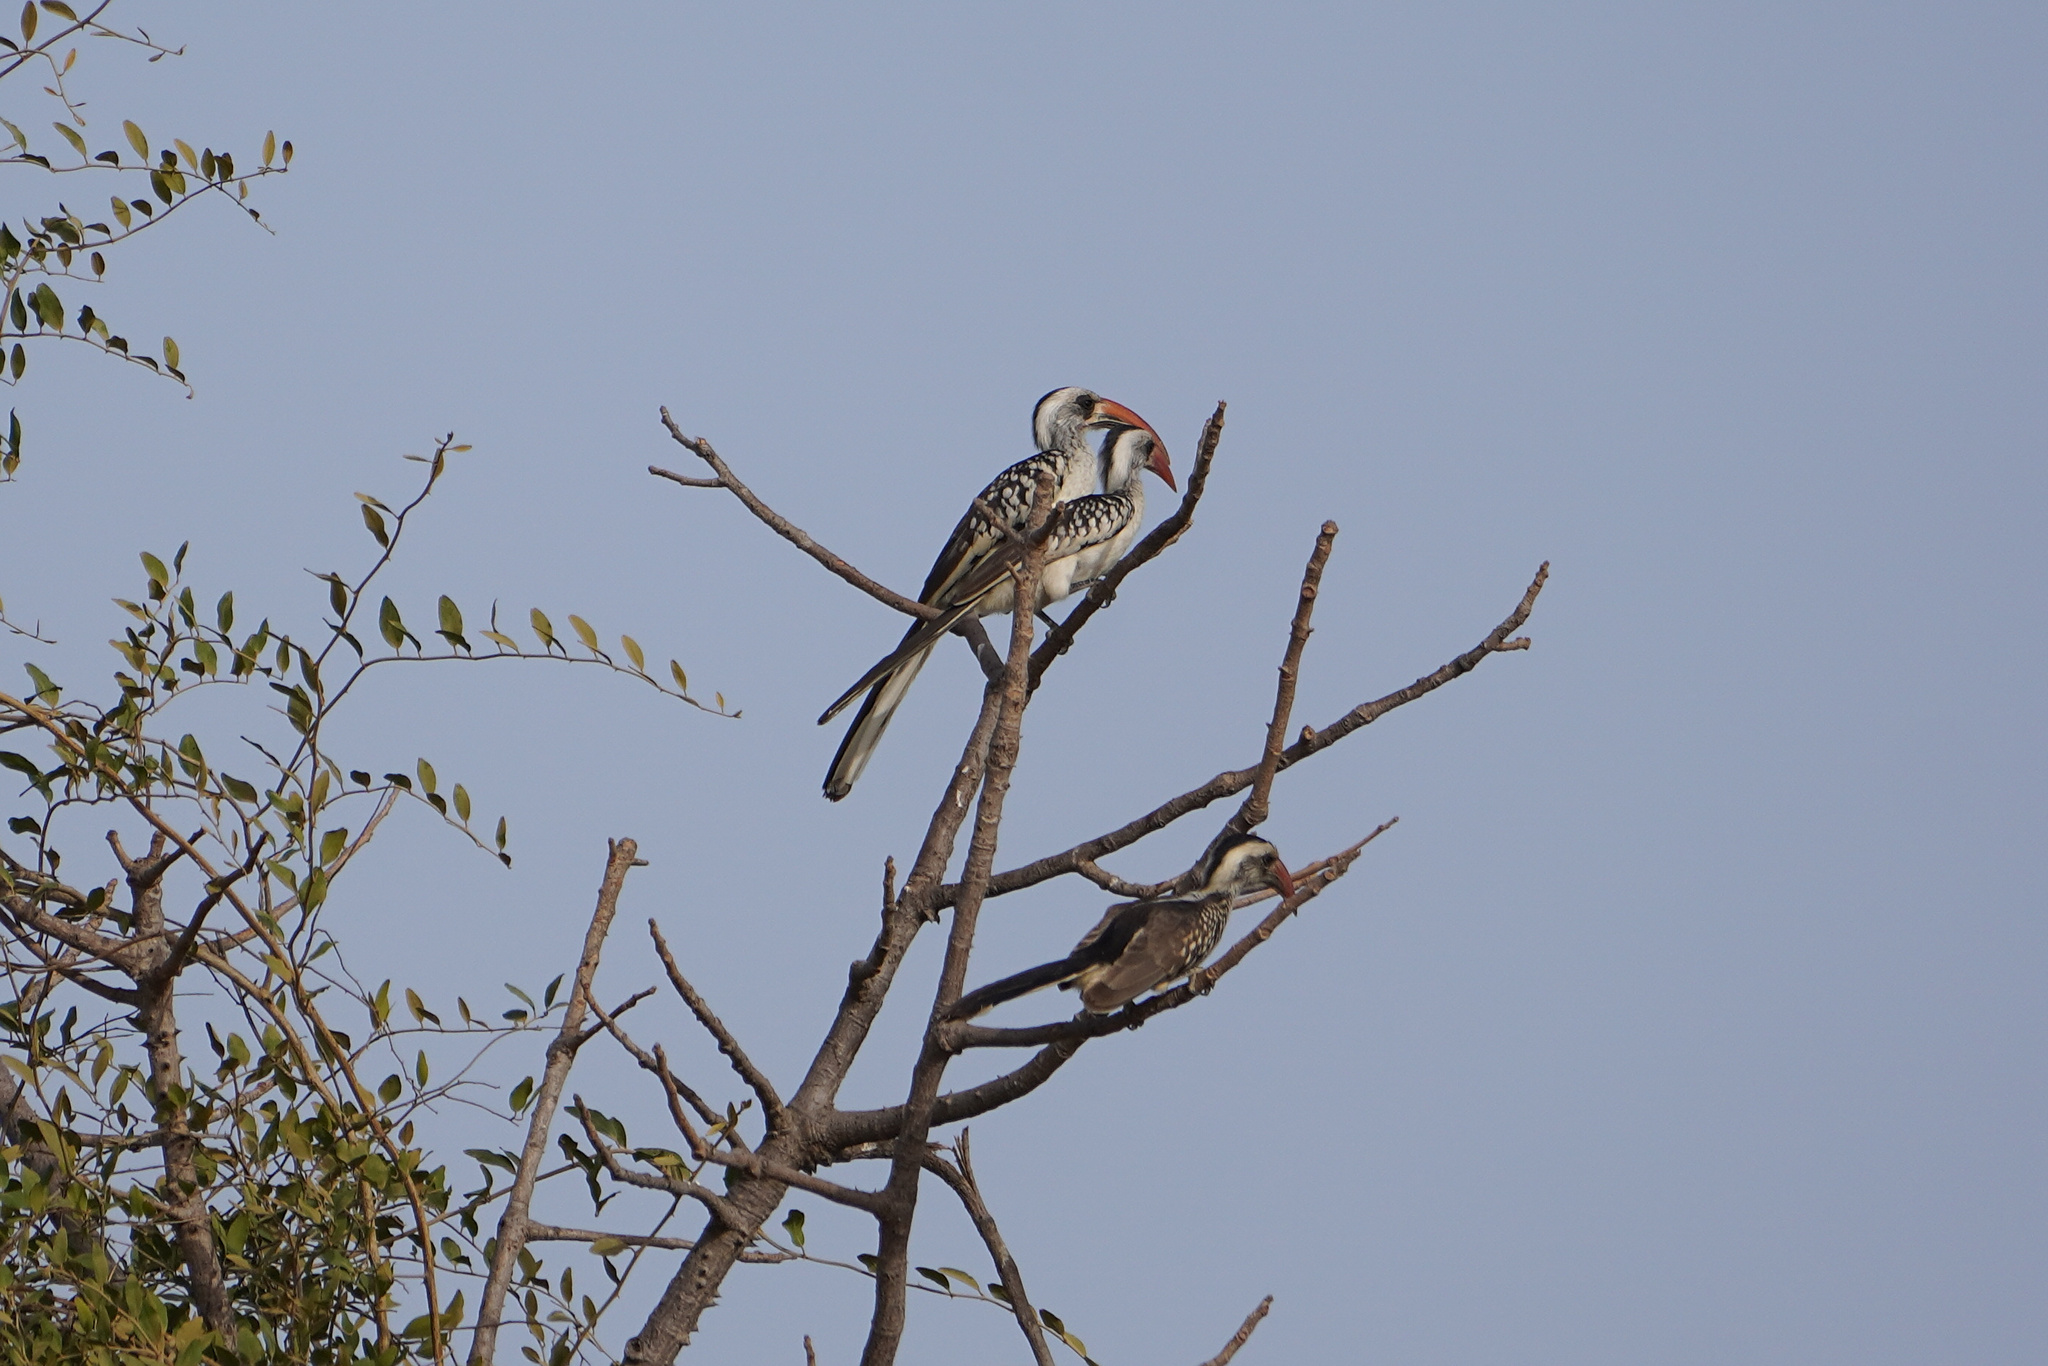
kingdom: Animalia
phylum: Chordata
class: Aves
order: Bucerotiformes
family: Bucerotidae
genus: Tockus
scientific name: Tockus kempi
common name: Western red-billed hornbill
